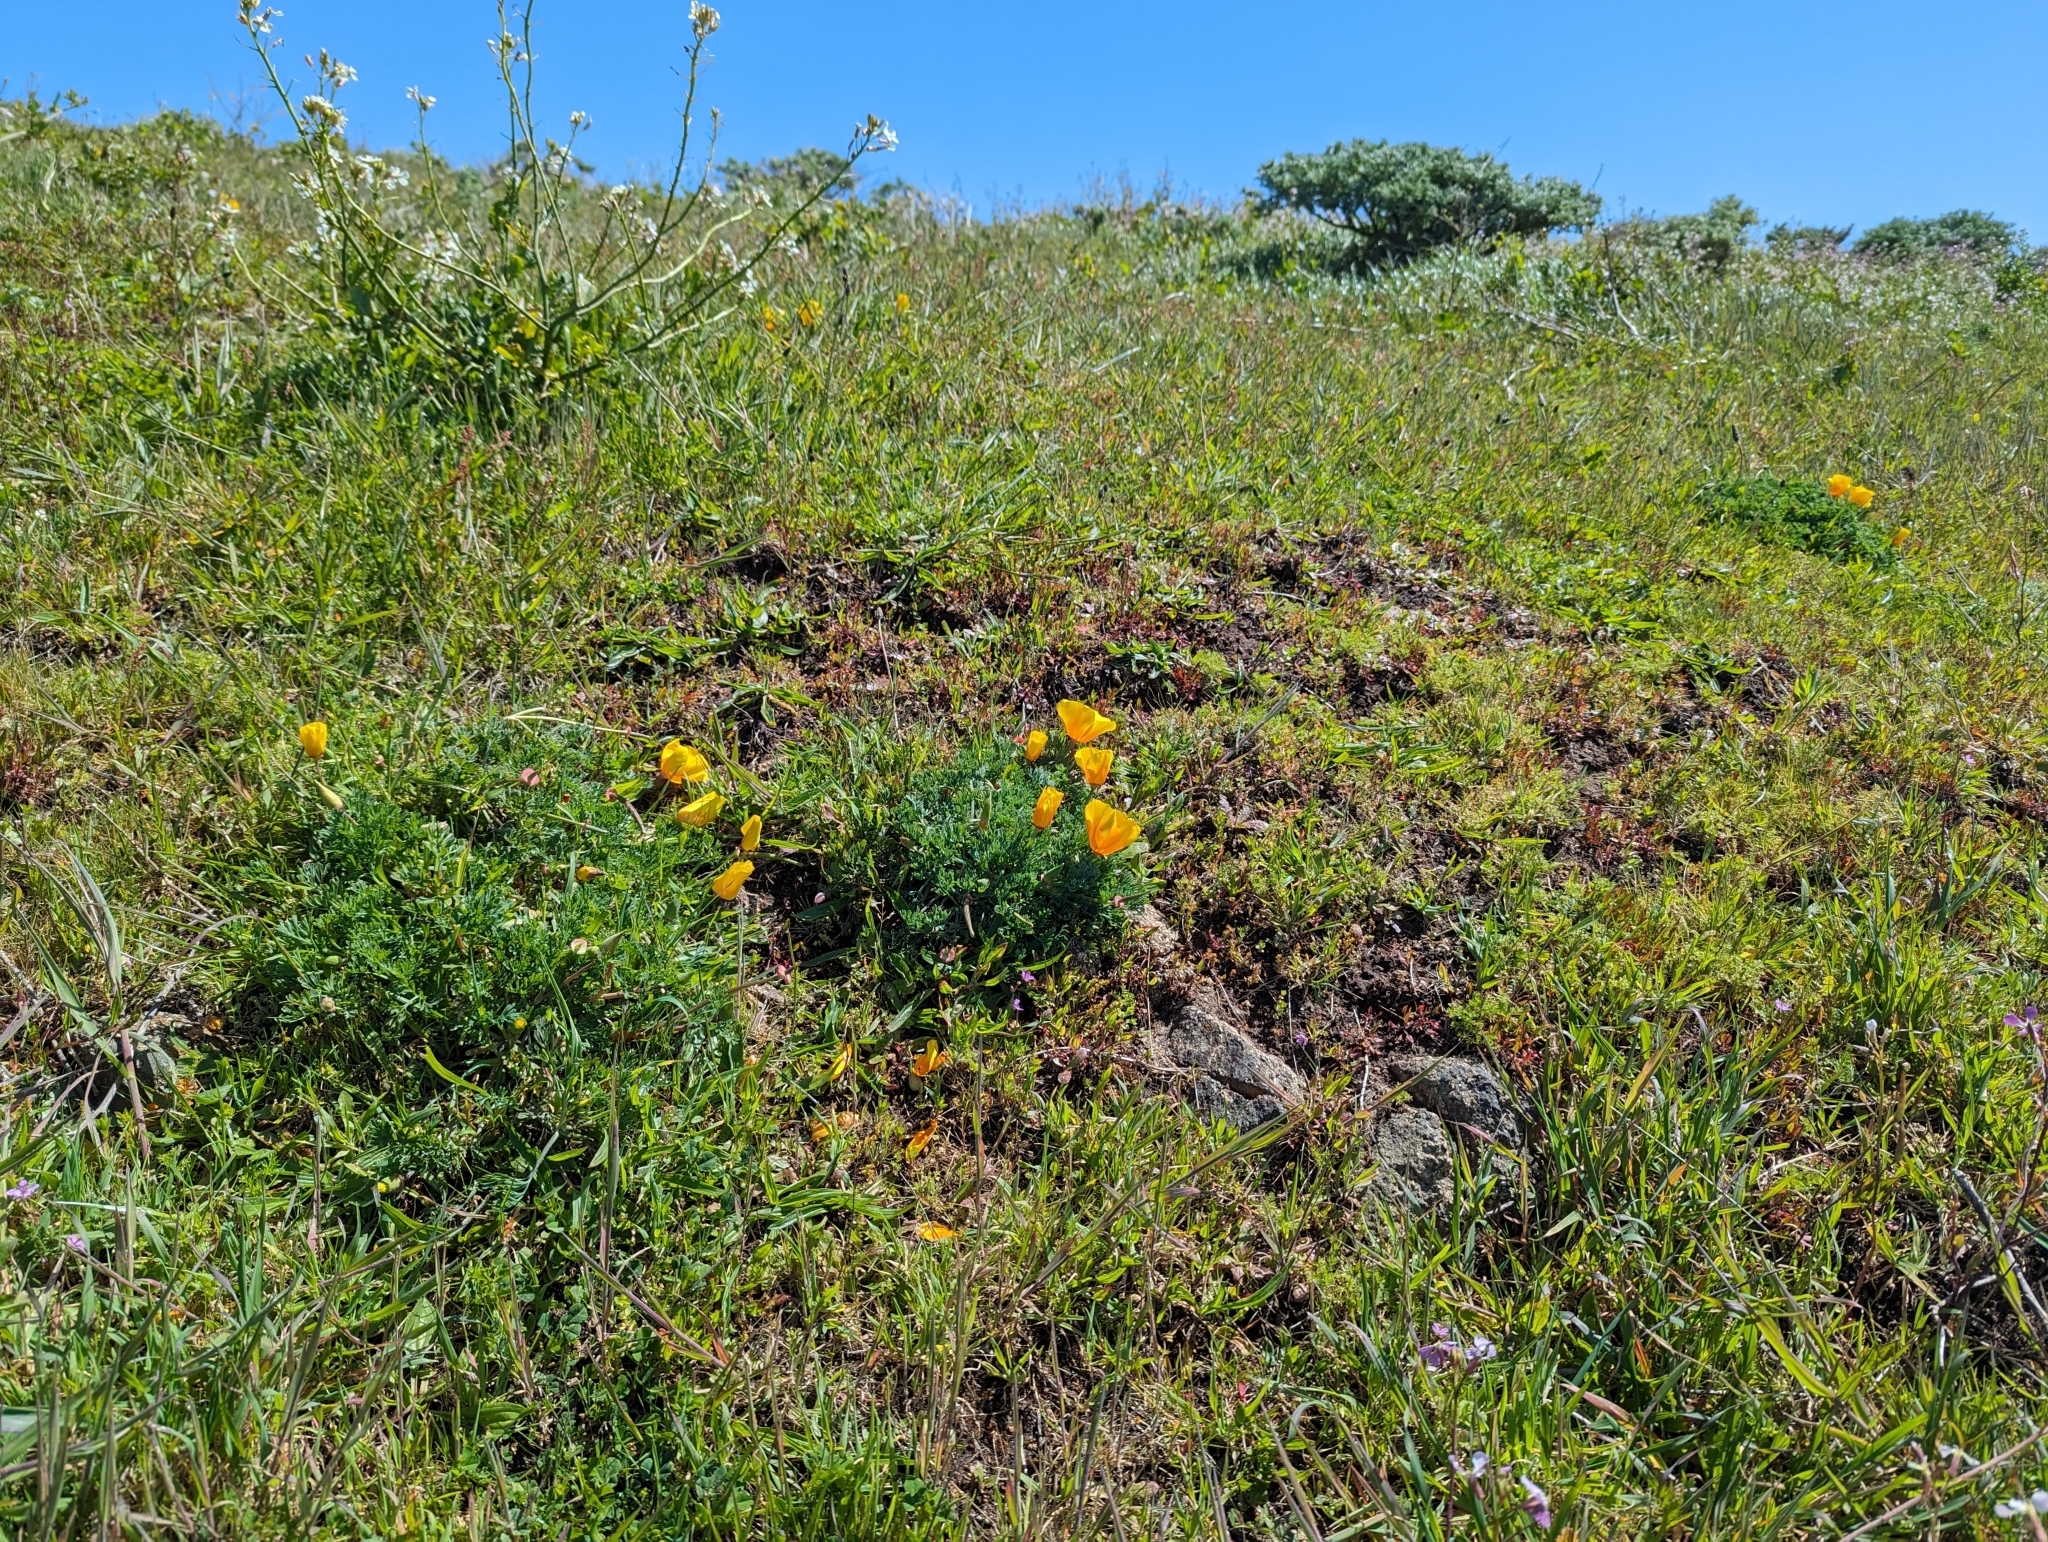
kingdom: Plantae
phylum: Tracheophyta
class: Magnoliopsida
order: Ranunculales
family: Papaveraceae
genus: Eschscholzia
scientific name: Eschscholzia californica
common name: California poppy
